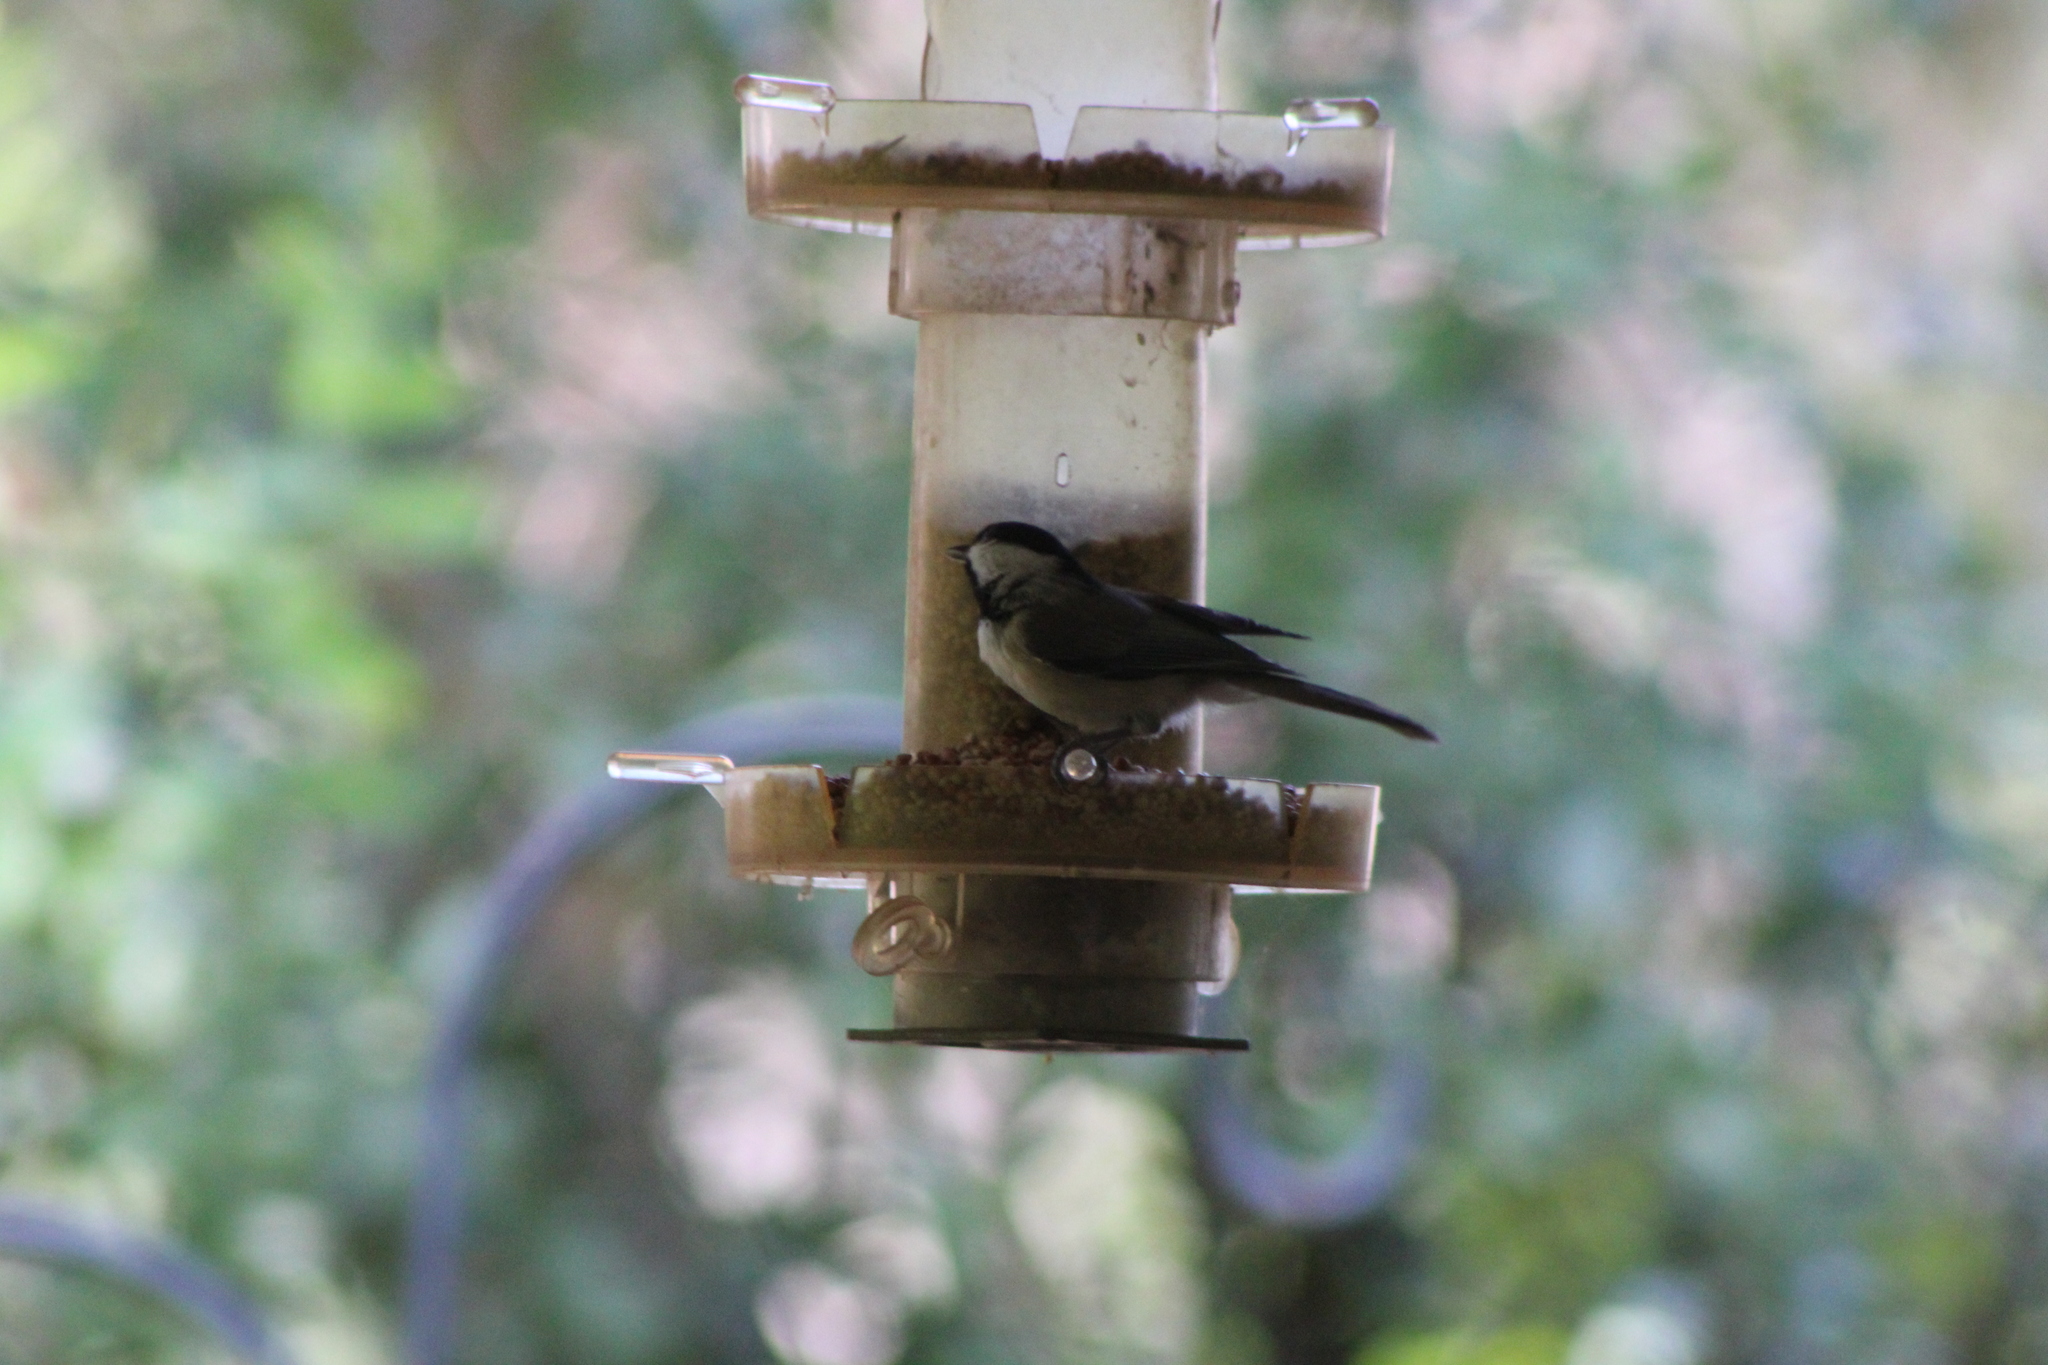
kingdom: Animalia
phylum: Chordata
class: Aves
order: Passeriformes
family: Paridae
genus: Poecile
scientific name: Poecile carolinensis
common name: Carolina chickadee
